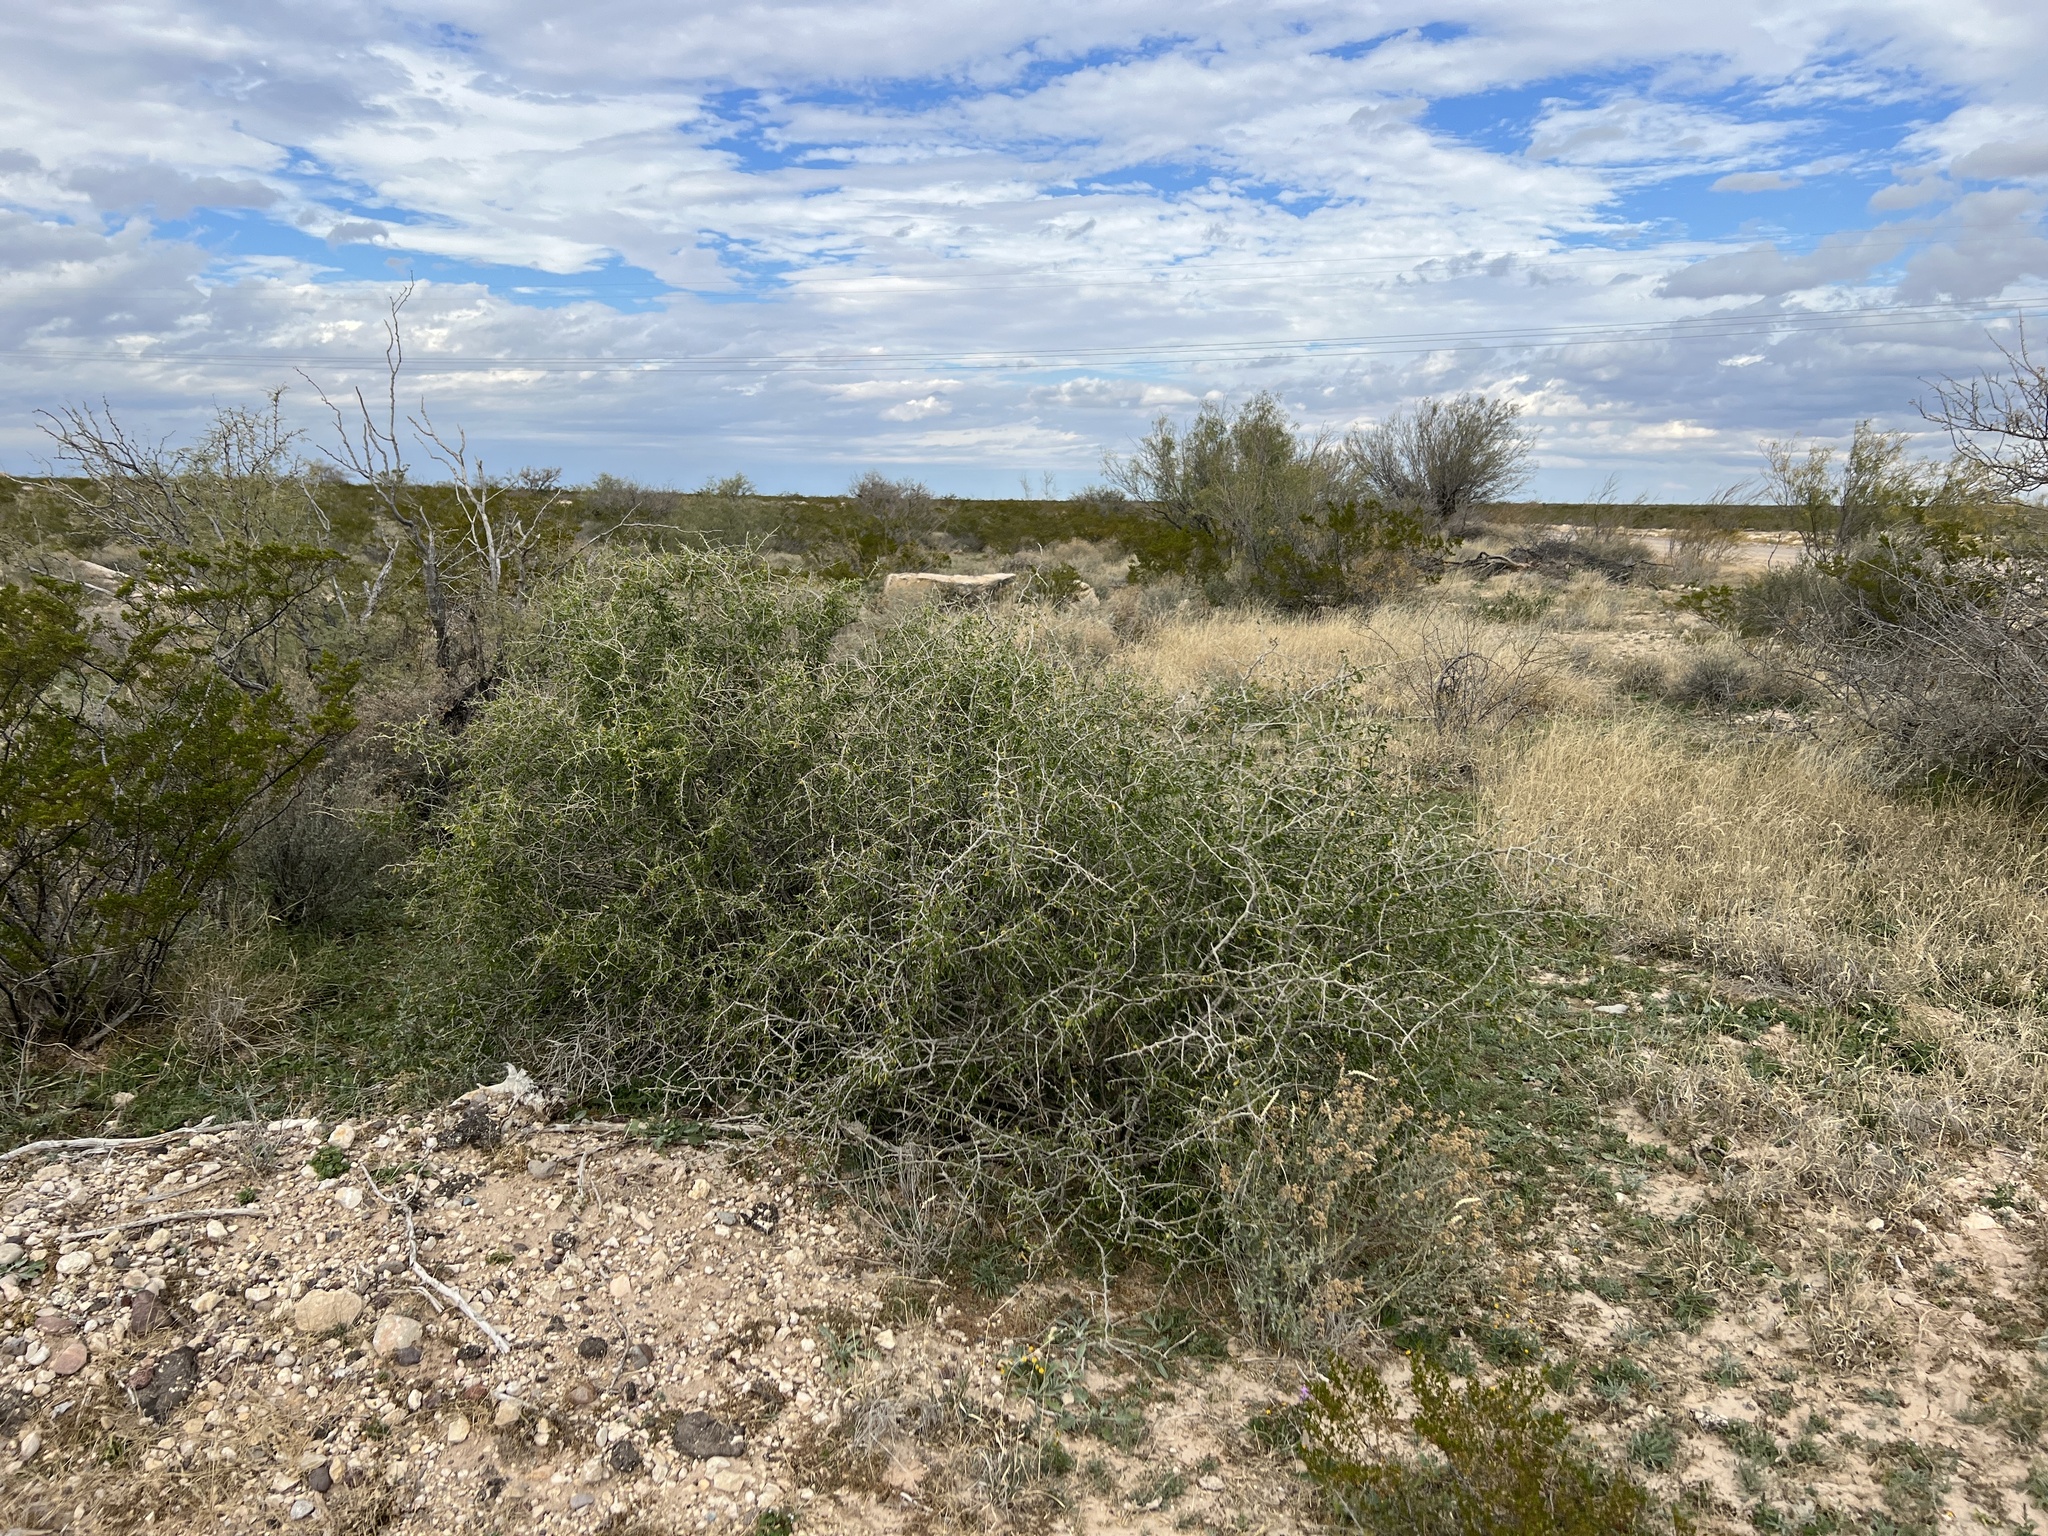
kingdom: Plantae
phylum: Tracheophyta
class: Magnoliopsida
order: Solanales
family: Solanaceae
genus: Lycium
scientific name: Lycium berlandieri
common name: Berlandier wolfberry
